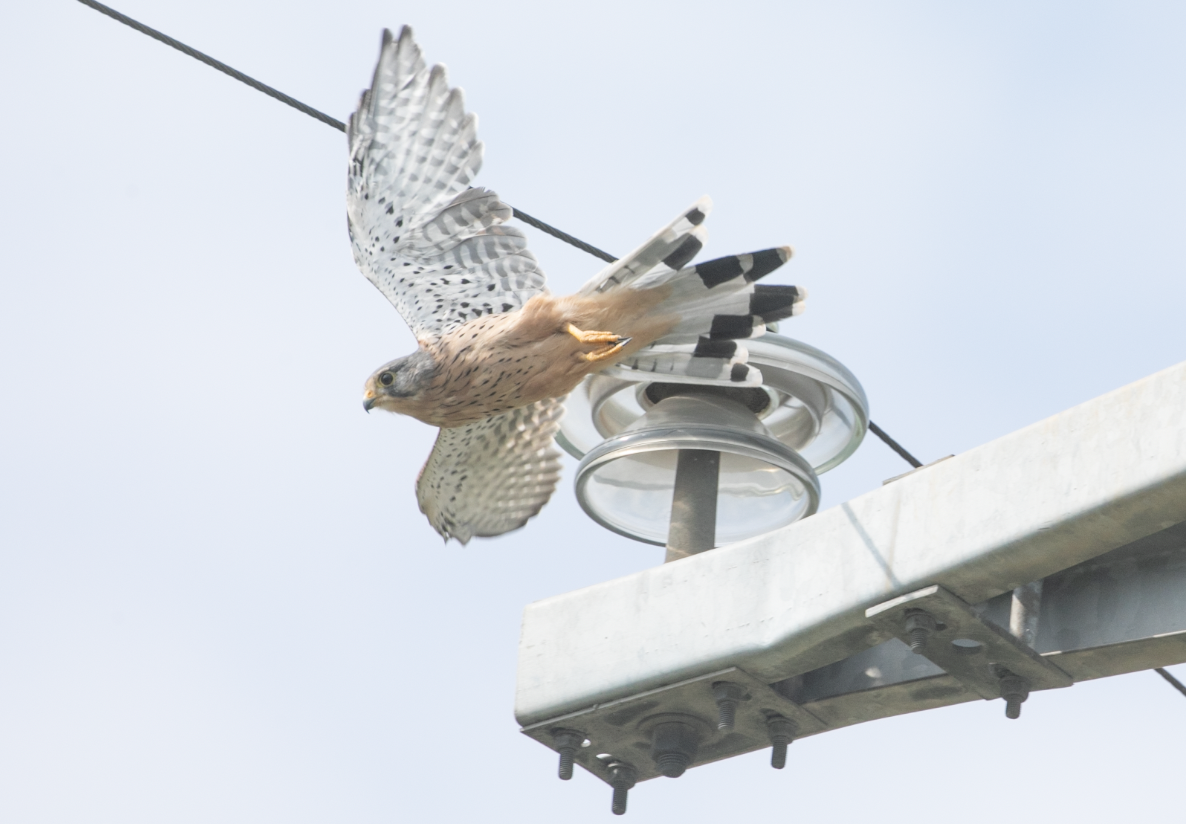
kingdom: Animalia
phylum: Chordata
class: Aves
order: Falconiformes
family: Falconidae
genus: Falco
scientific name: Falco tinnunculus
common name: Common kestrel
